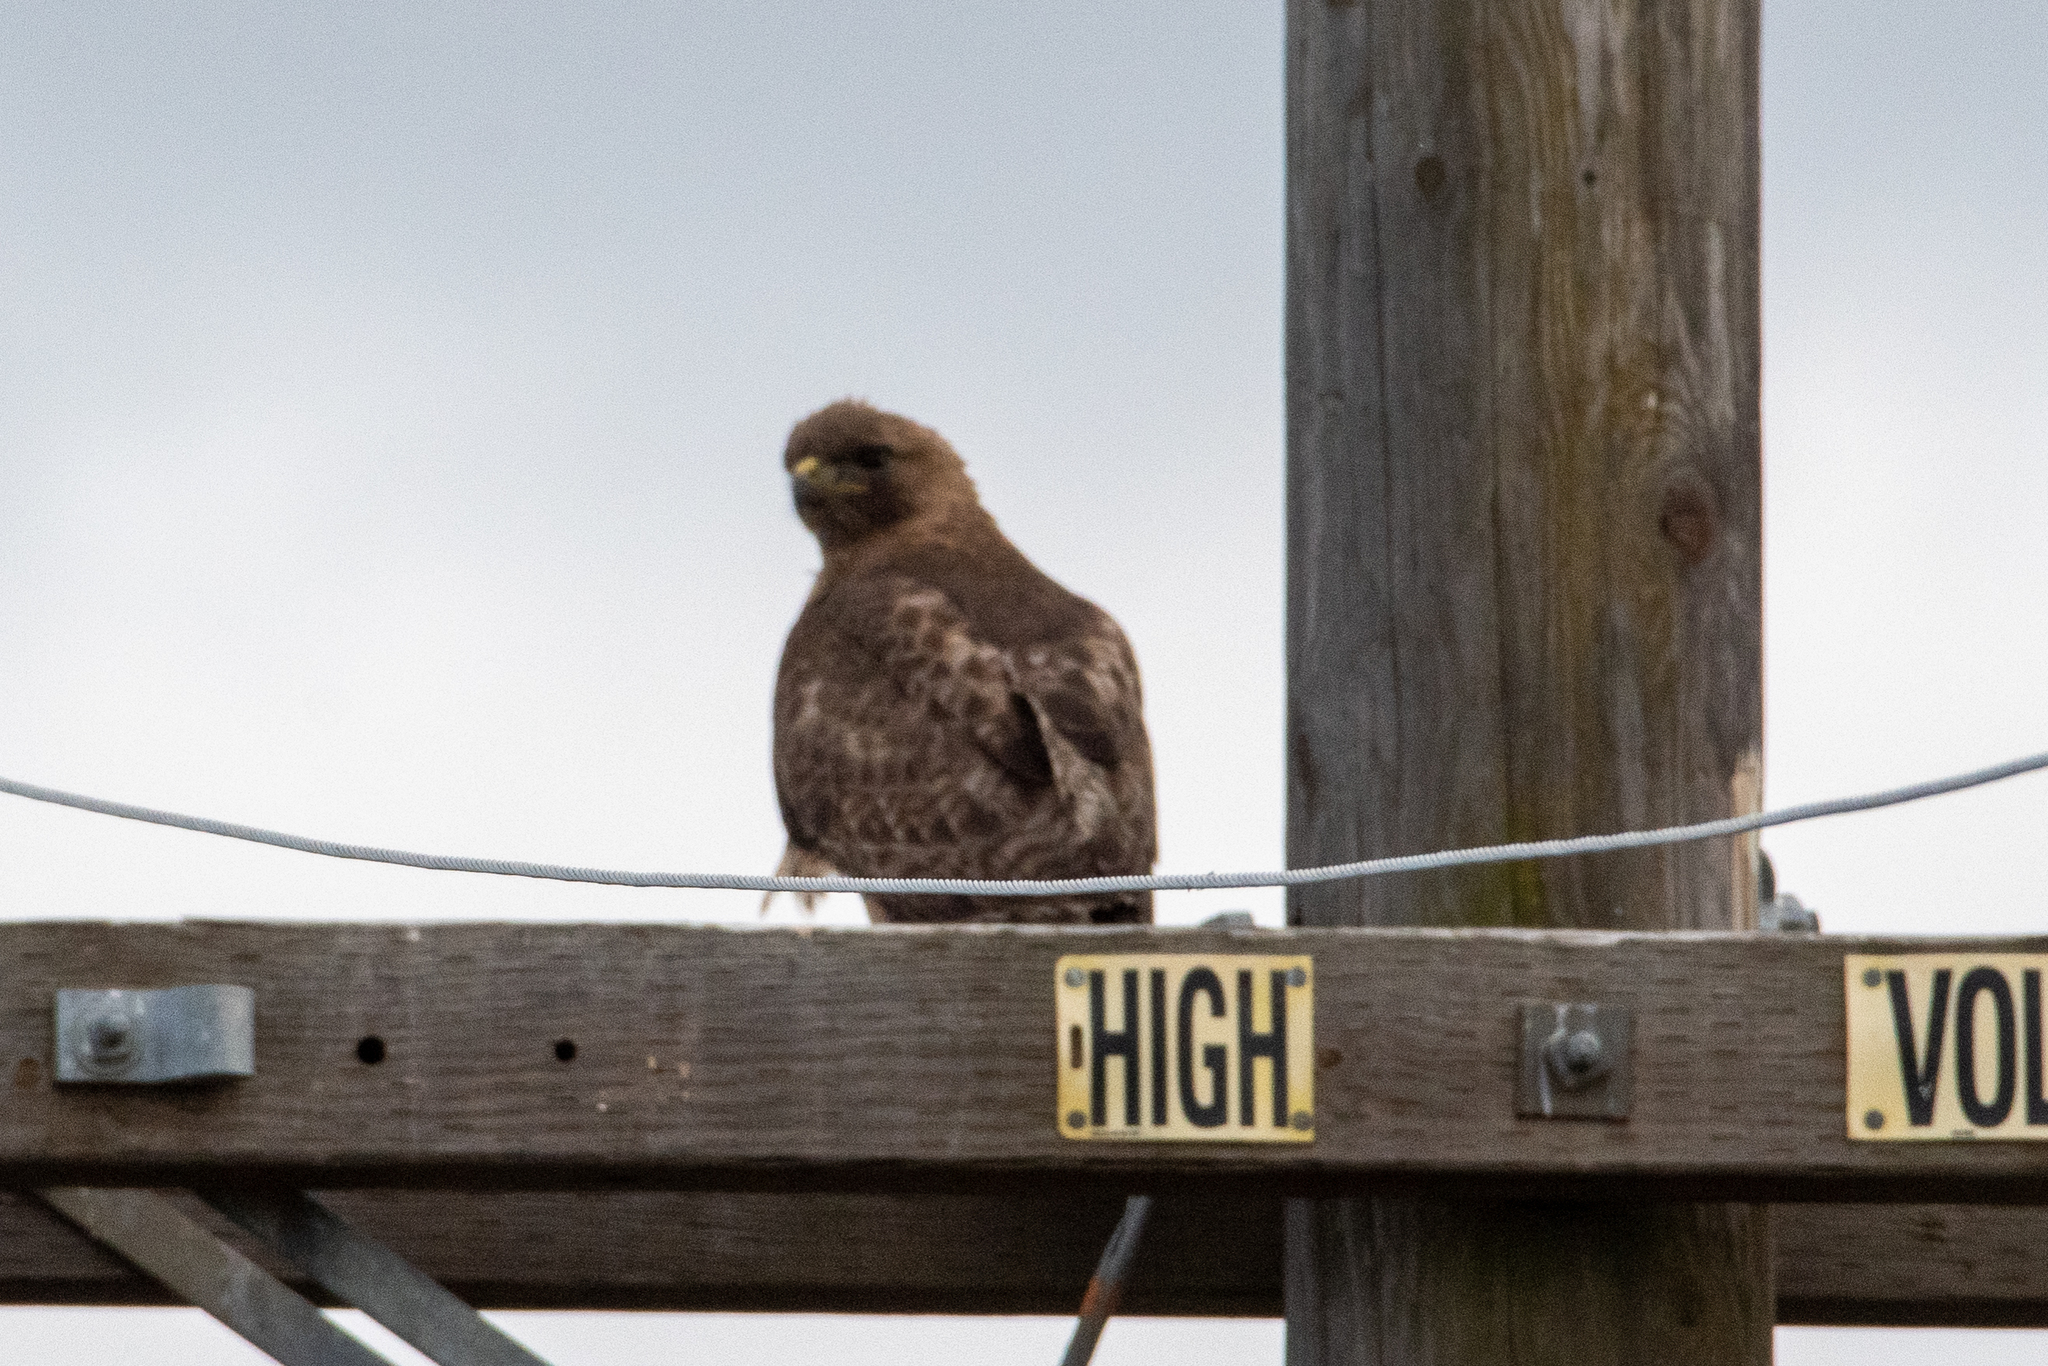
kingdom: Animalia
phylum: Chordata
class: Aves
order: Accipitriformes
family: Accipitridae
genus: Buteo
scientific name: Buteo jamaicensis
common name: Red-tailed hawk
